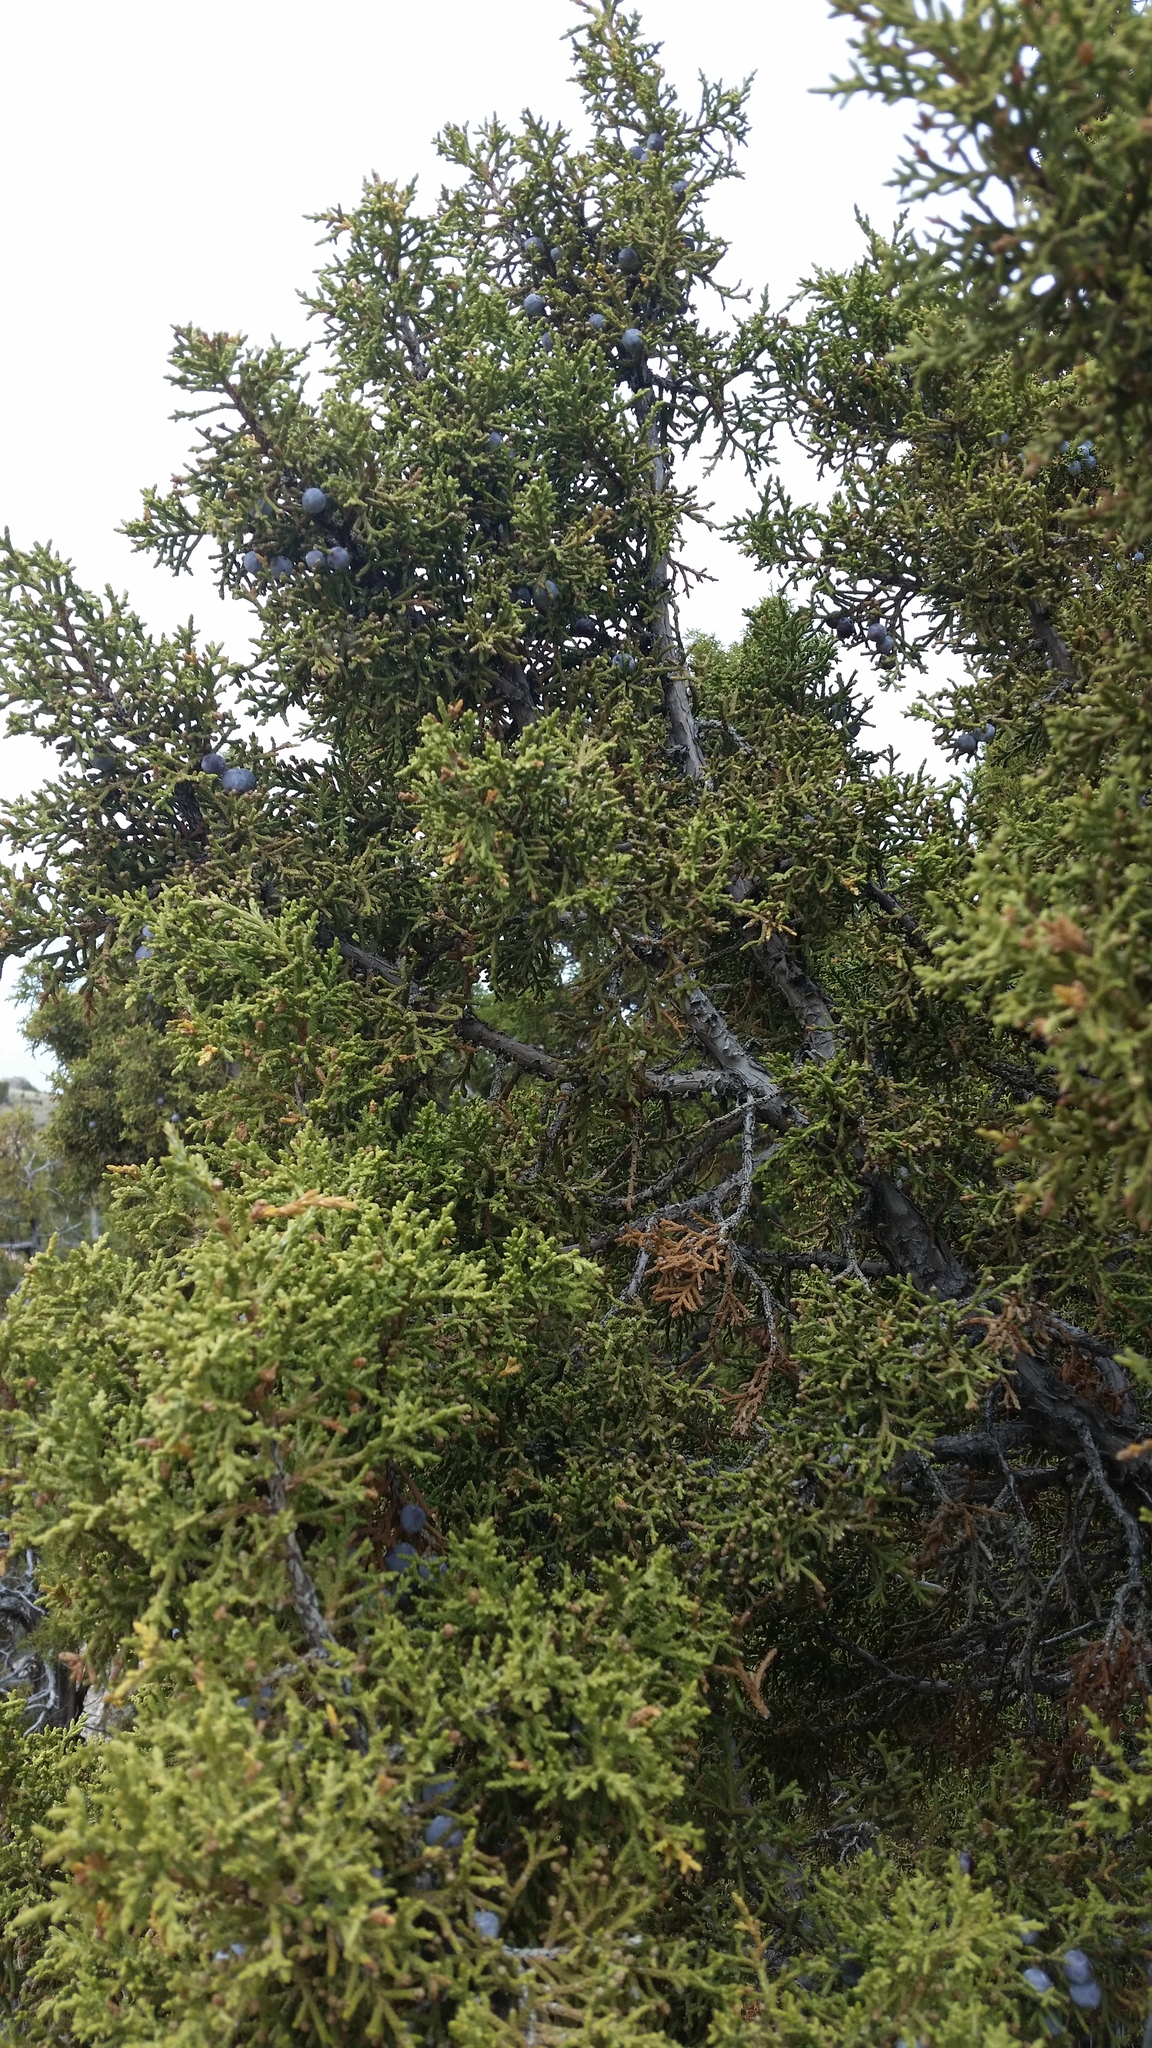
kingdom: Plantae
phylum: Tracheophyta
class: Pinopsida
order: Pinales
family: Cupressaceae
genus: Juniperus
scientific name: Juniperus osteosperma
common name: Utah juniper
